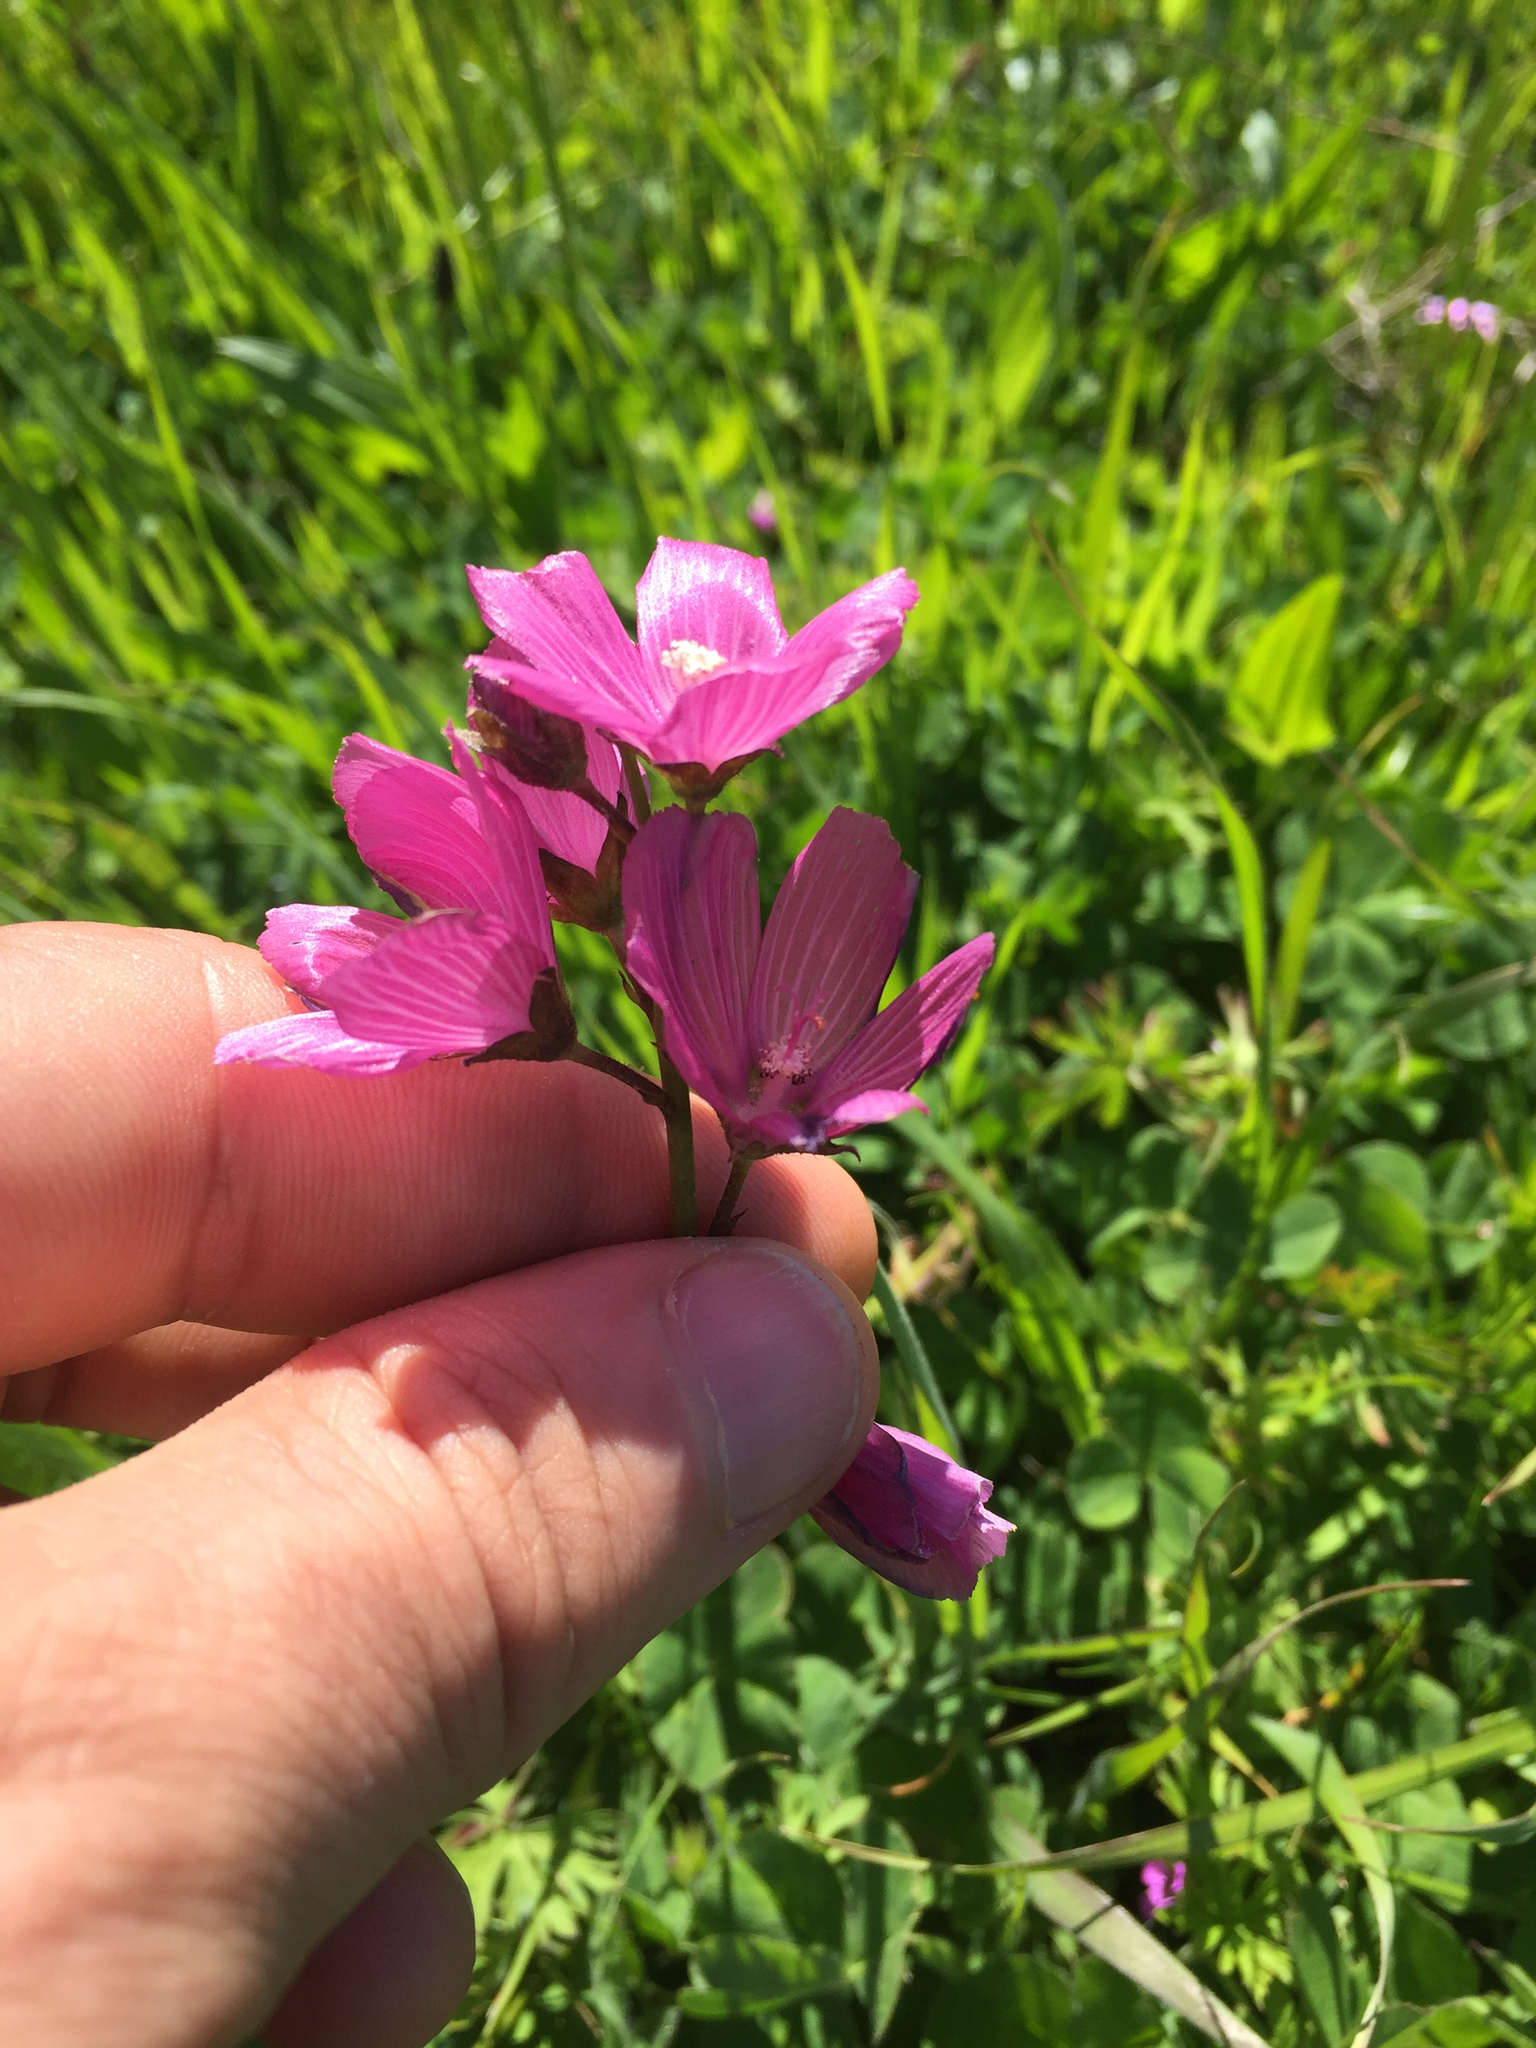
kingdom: Plantae
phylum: Tracheophyta
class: Magnoliopsida
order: Malvales
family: Malvaceae
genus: Sidalcea
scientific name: Sidalcea malviflora
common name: Greek mallow
